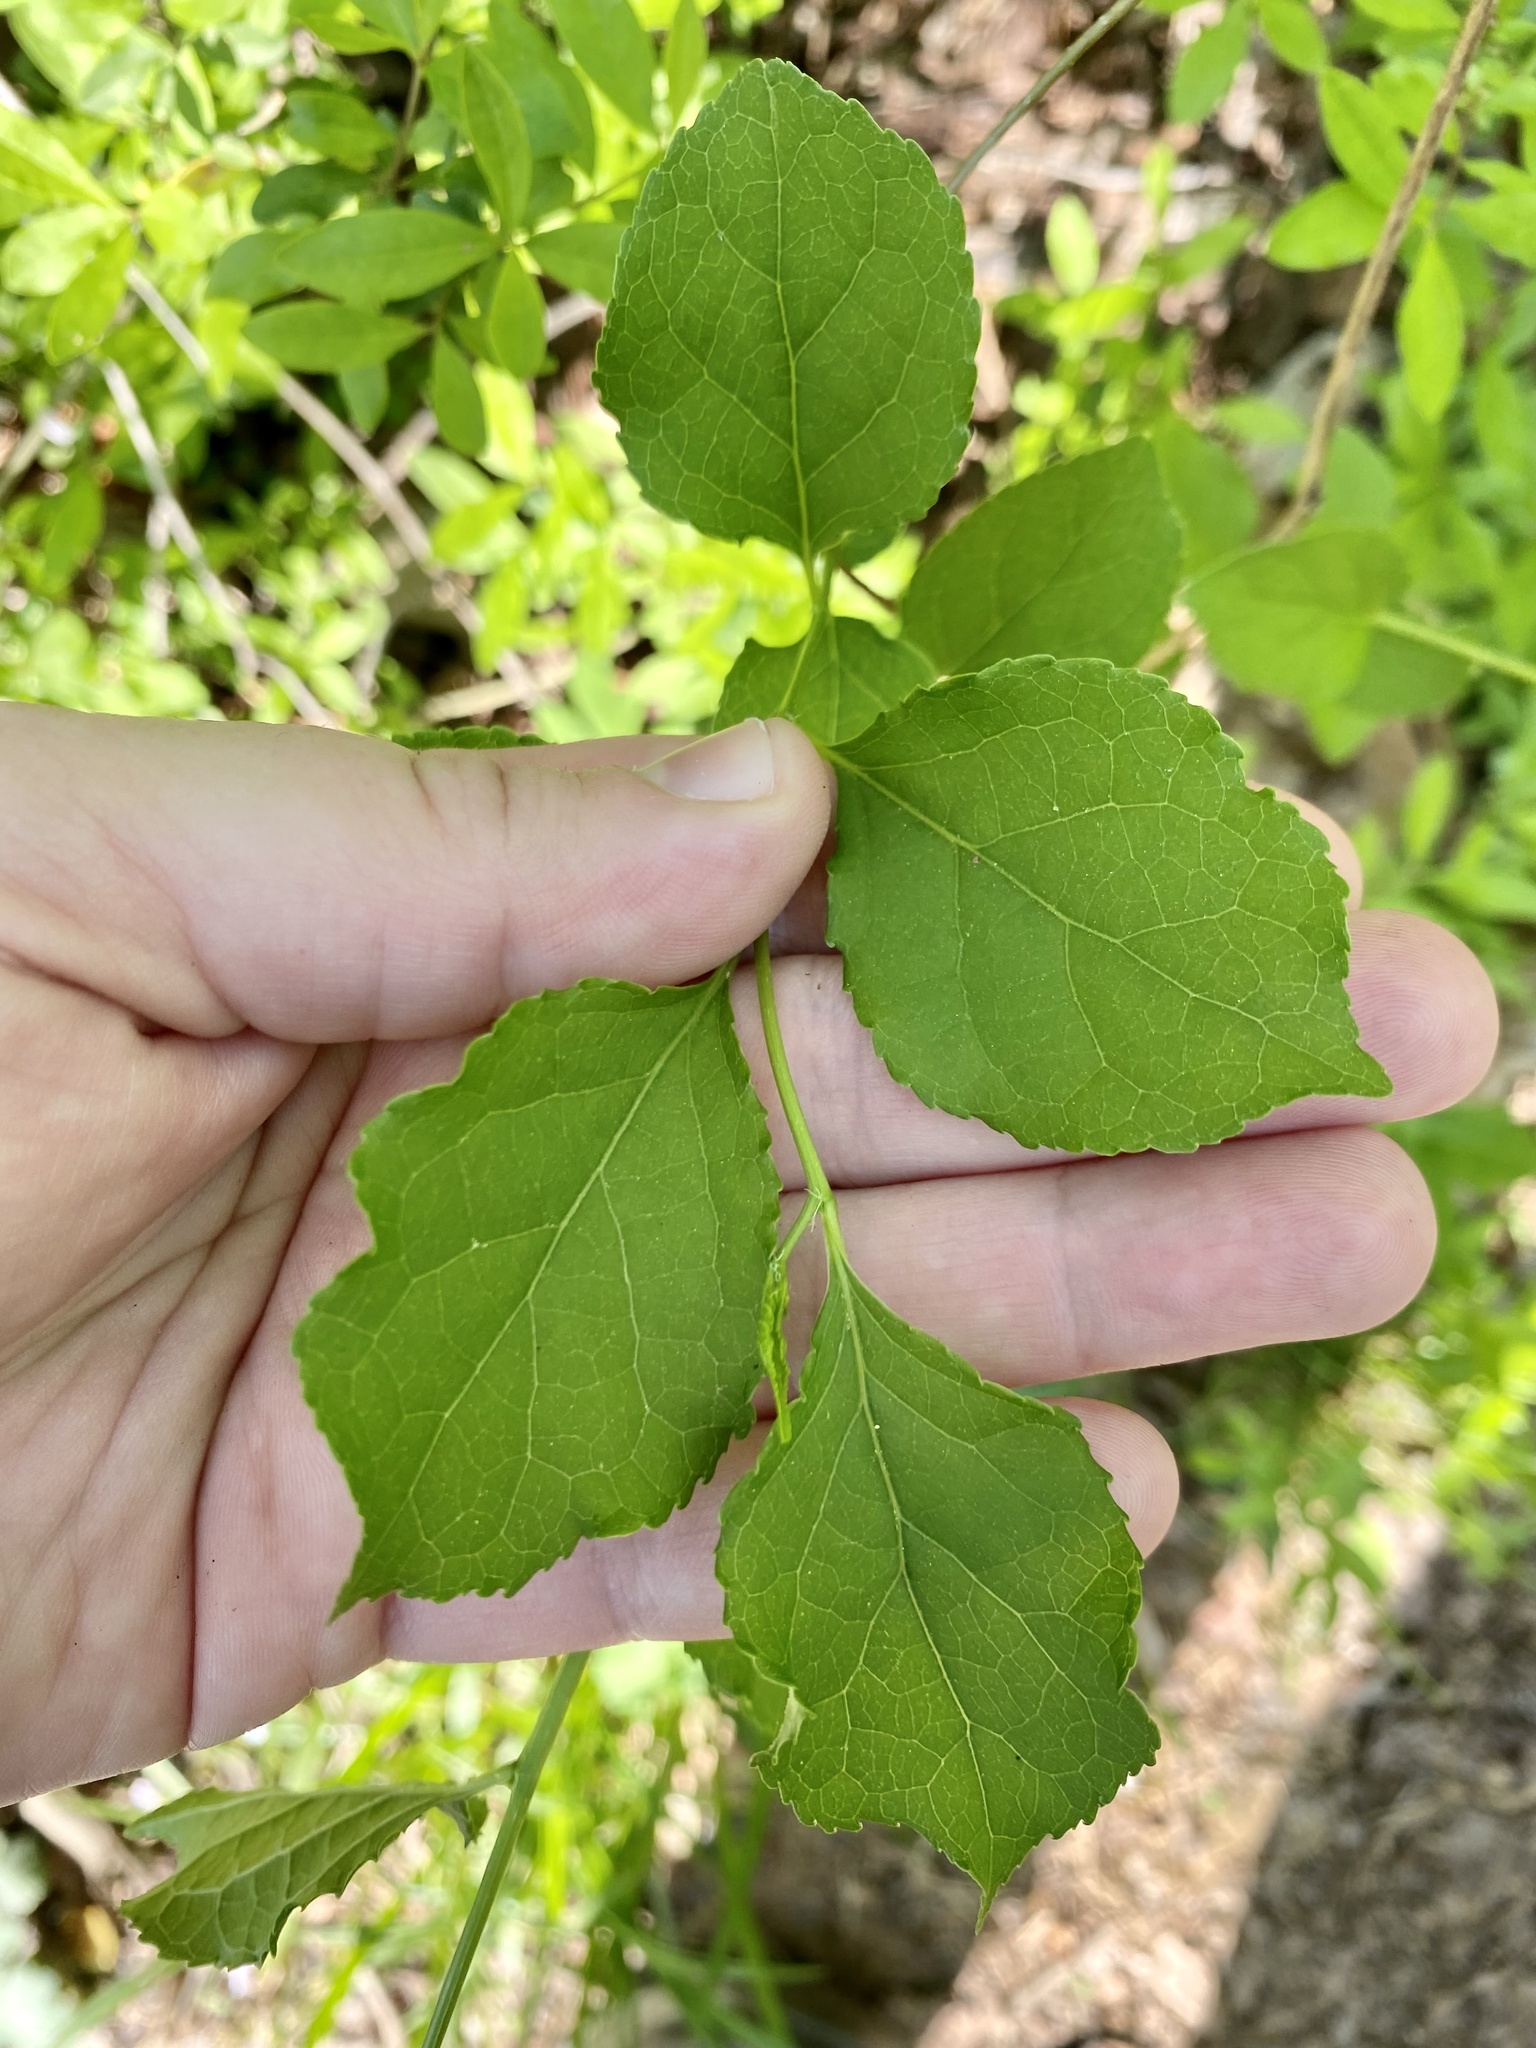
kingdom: Plantae
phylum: Tracheophyta
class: Magnoliopsida
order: Celastrales
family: Celastraceae
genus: Celastrus
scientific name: Celastrus orbiculatus
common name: Oriental bittersweet
